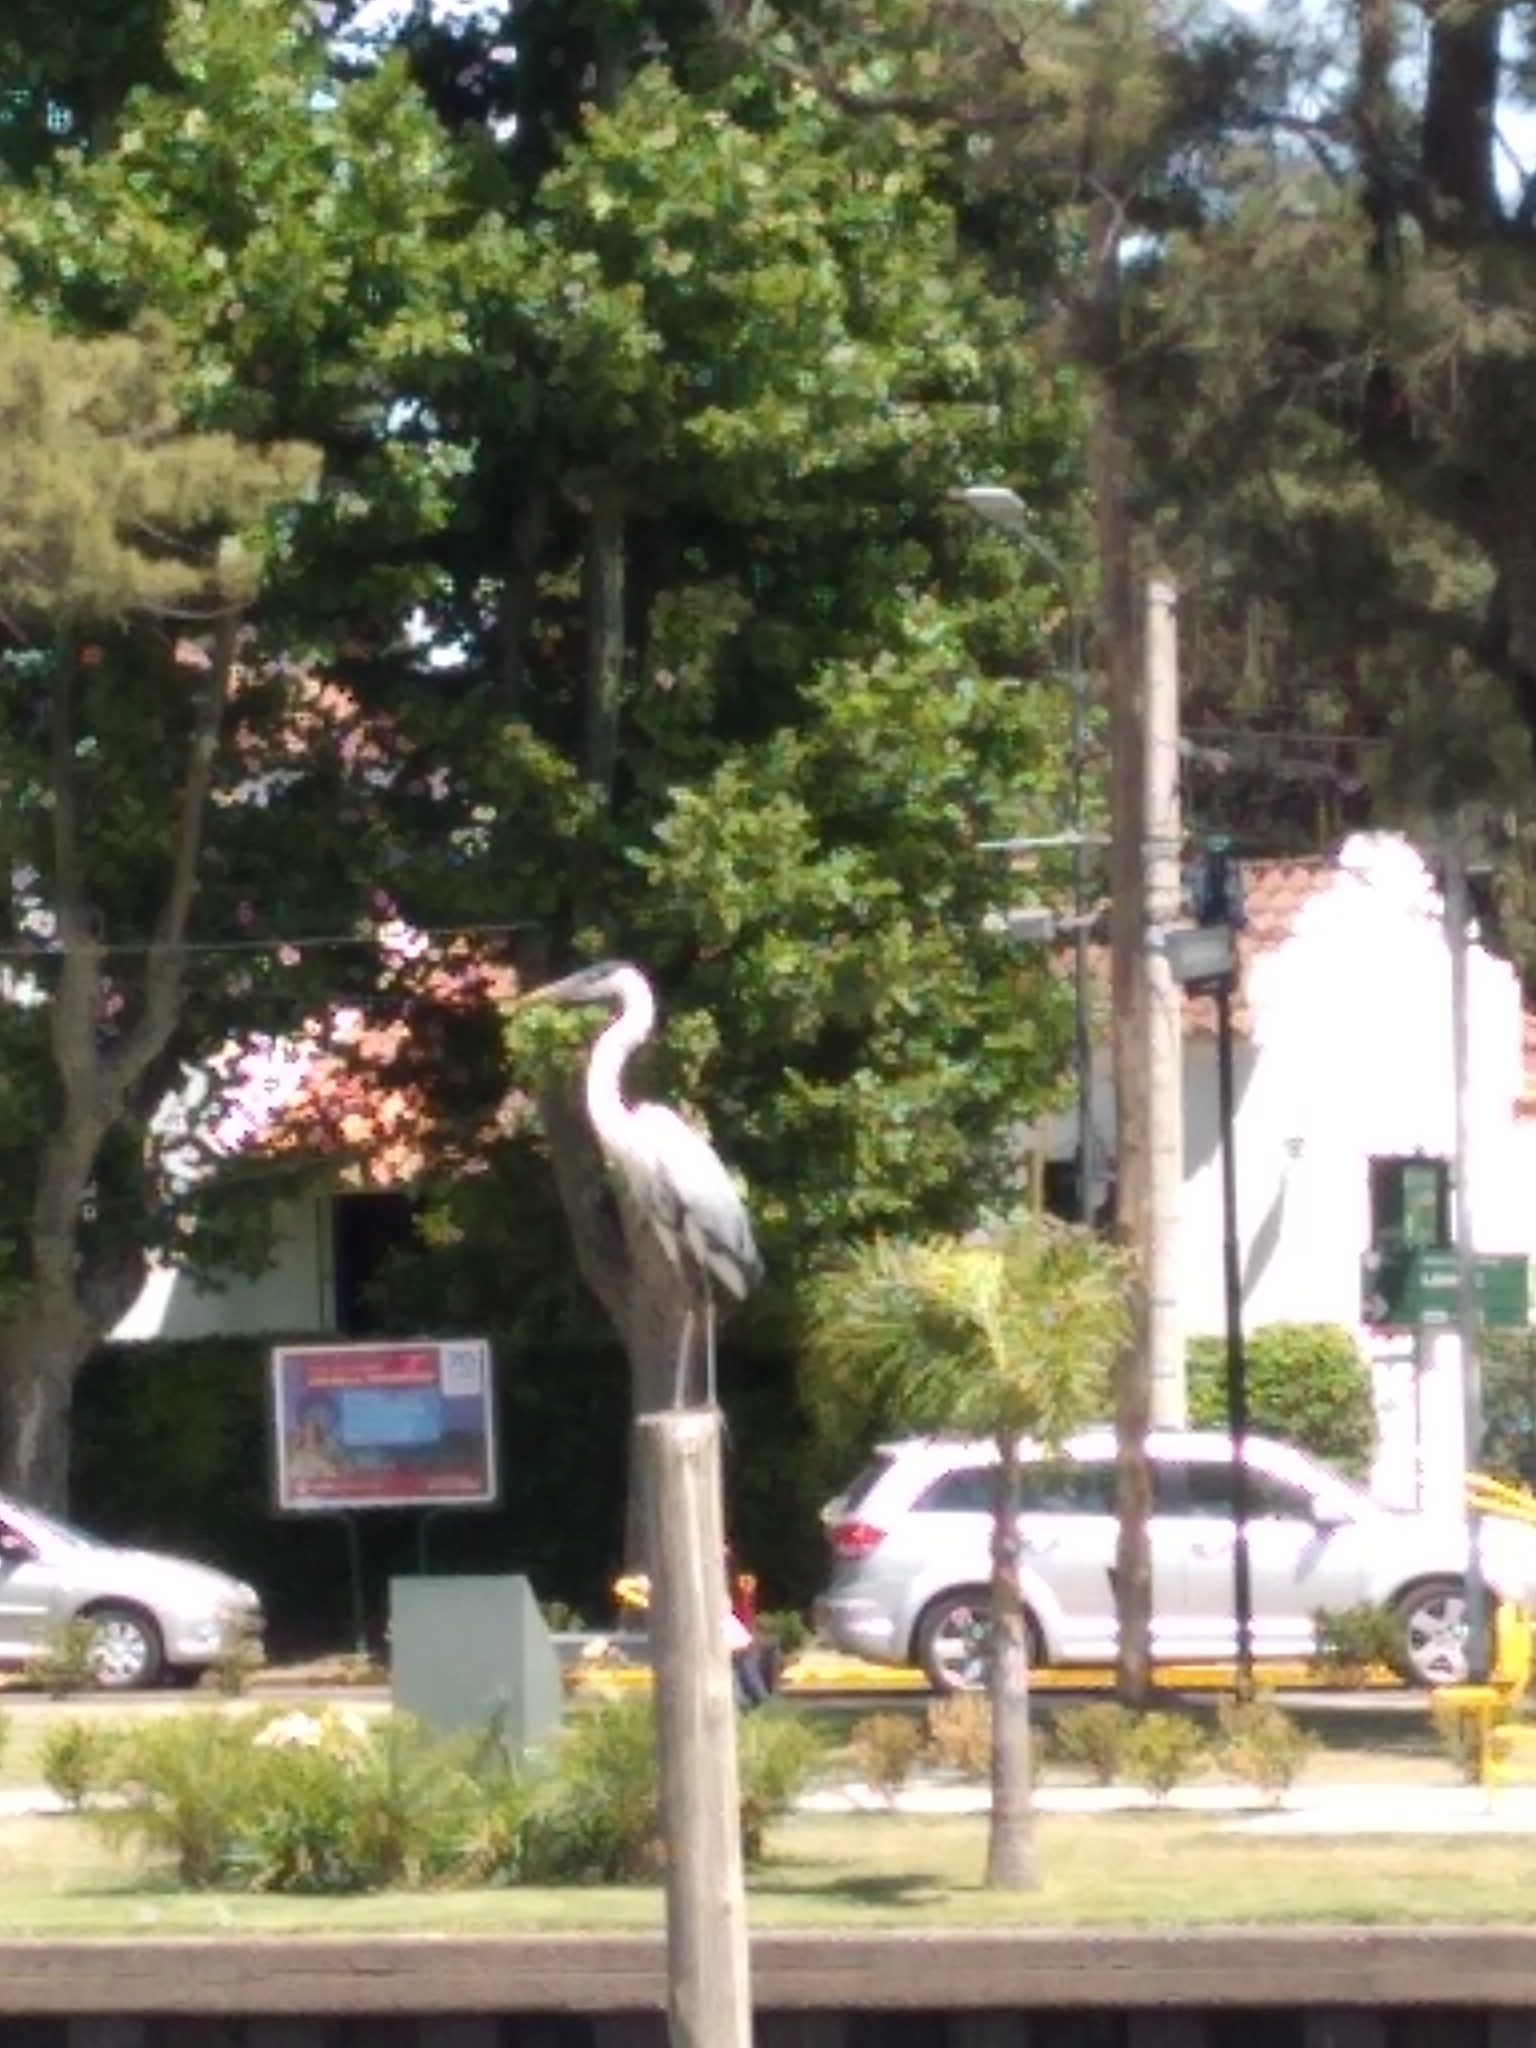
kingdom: Animalia
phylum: Chordata
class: Aves
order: Pelecaniformes
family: Ardeidae
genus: Ardea
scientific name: Ardea cocoi
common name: Cocoi heron
